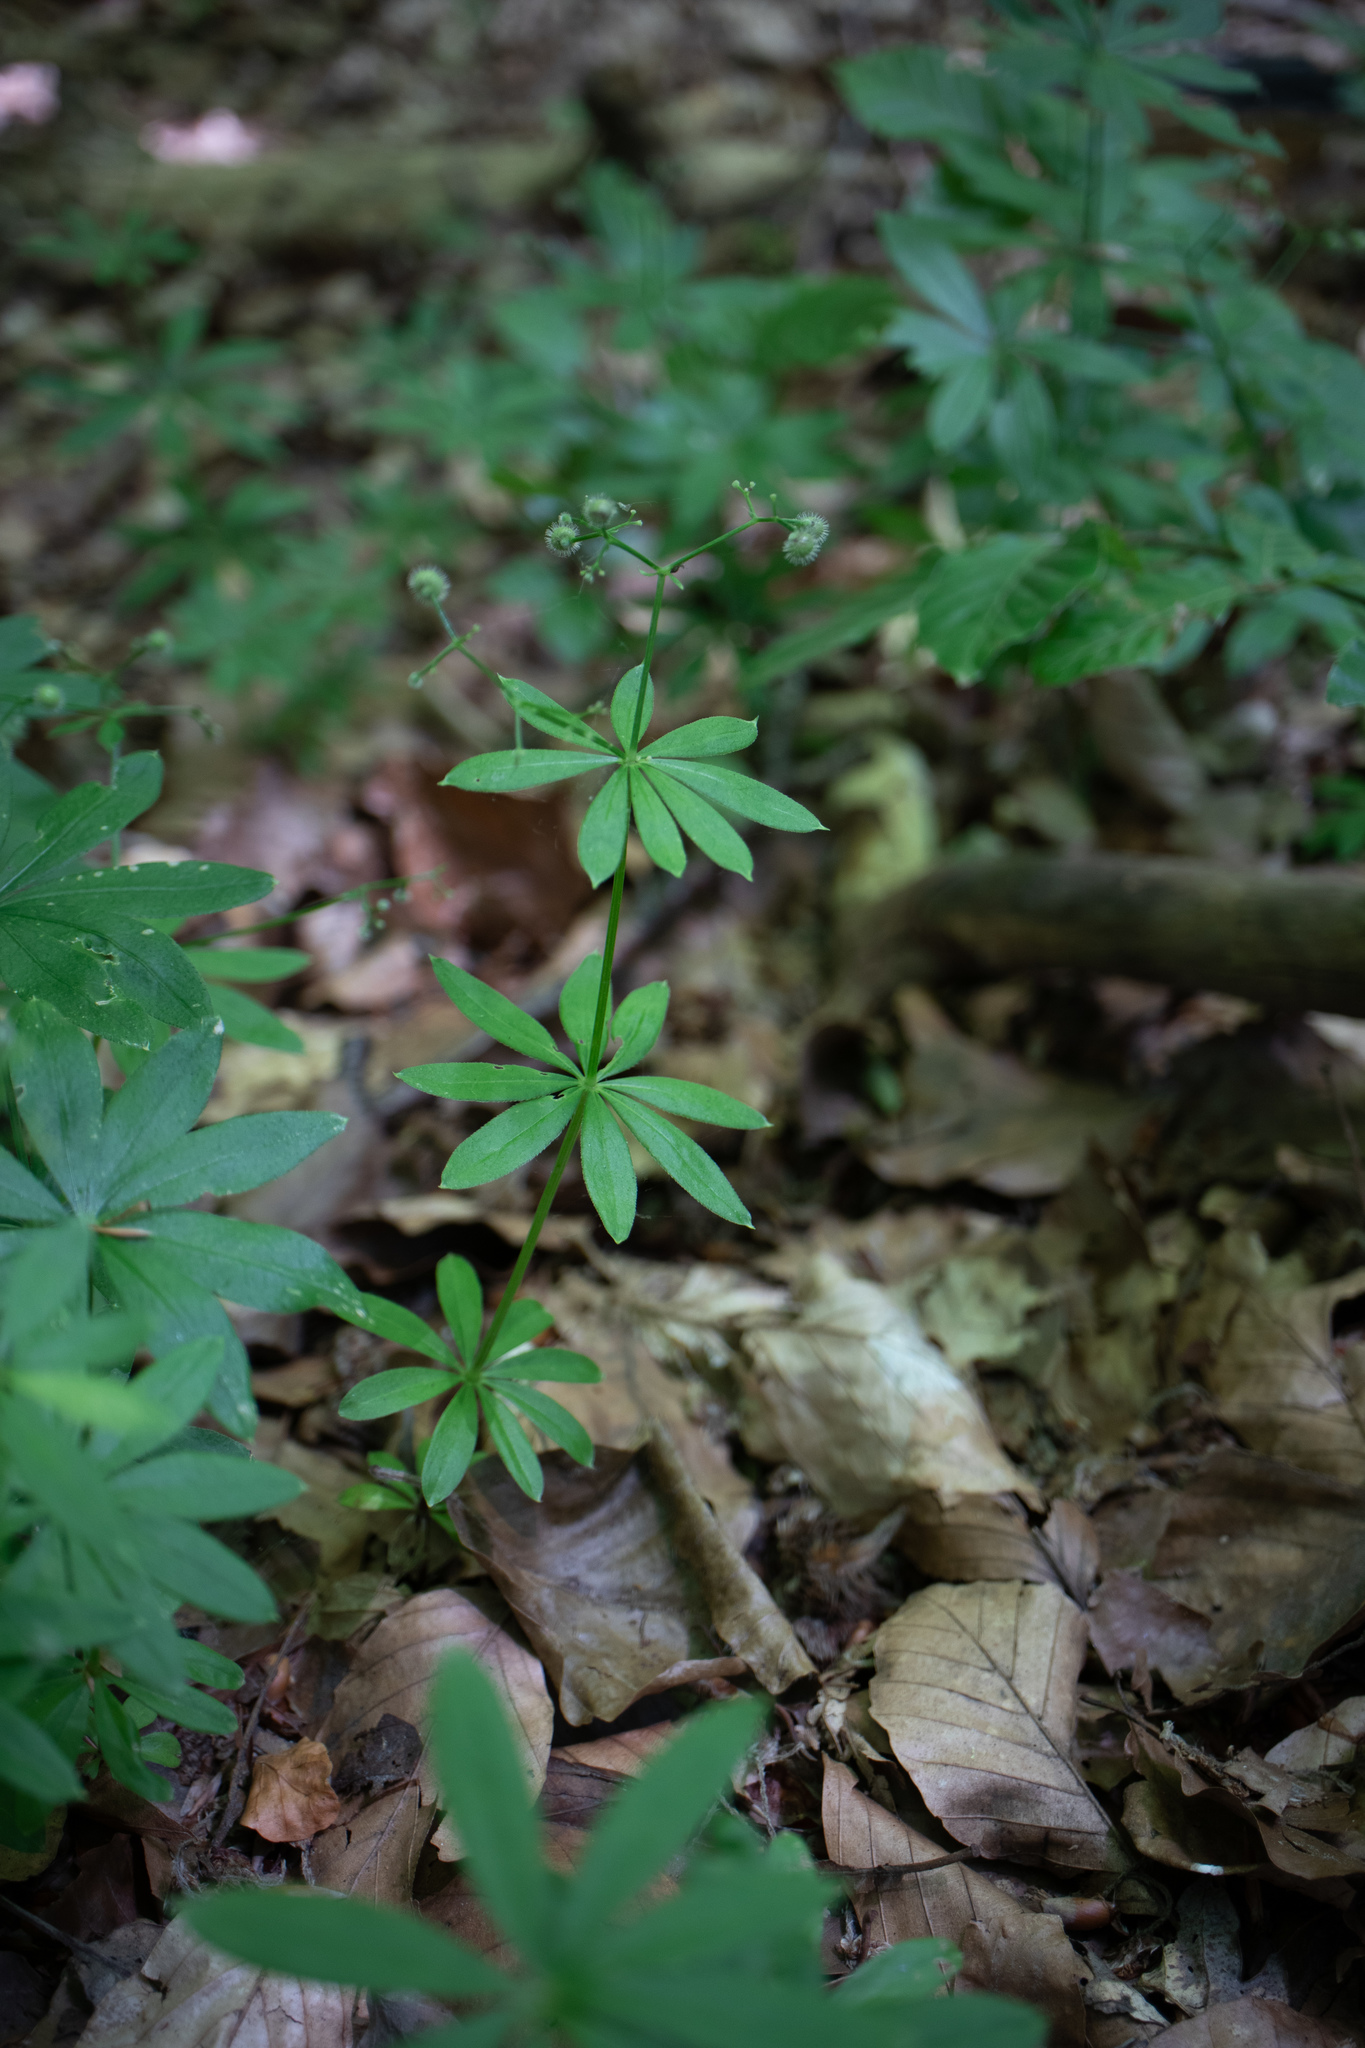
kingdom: Plantae
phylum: Tracheophyta
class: Magnoliopsida
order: Gentianales
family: Rubiaceae
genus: Galium
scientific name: Galium odoratum
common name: Sweet woodruff
